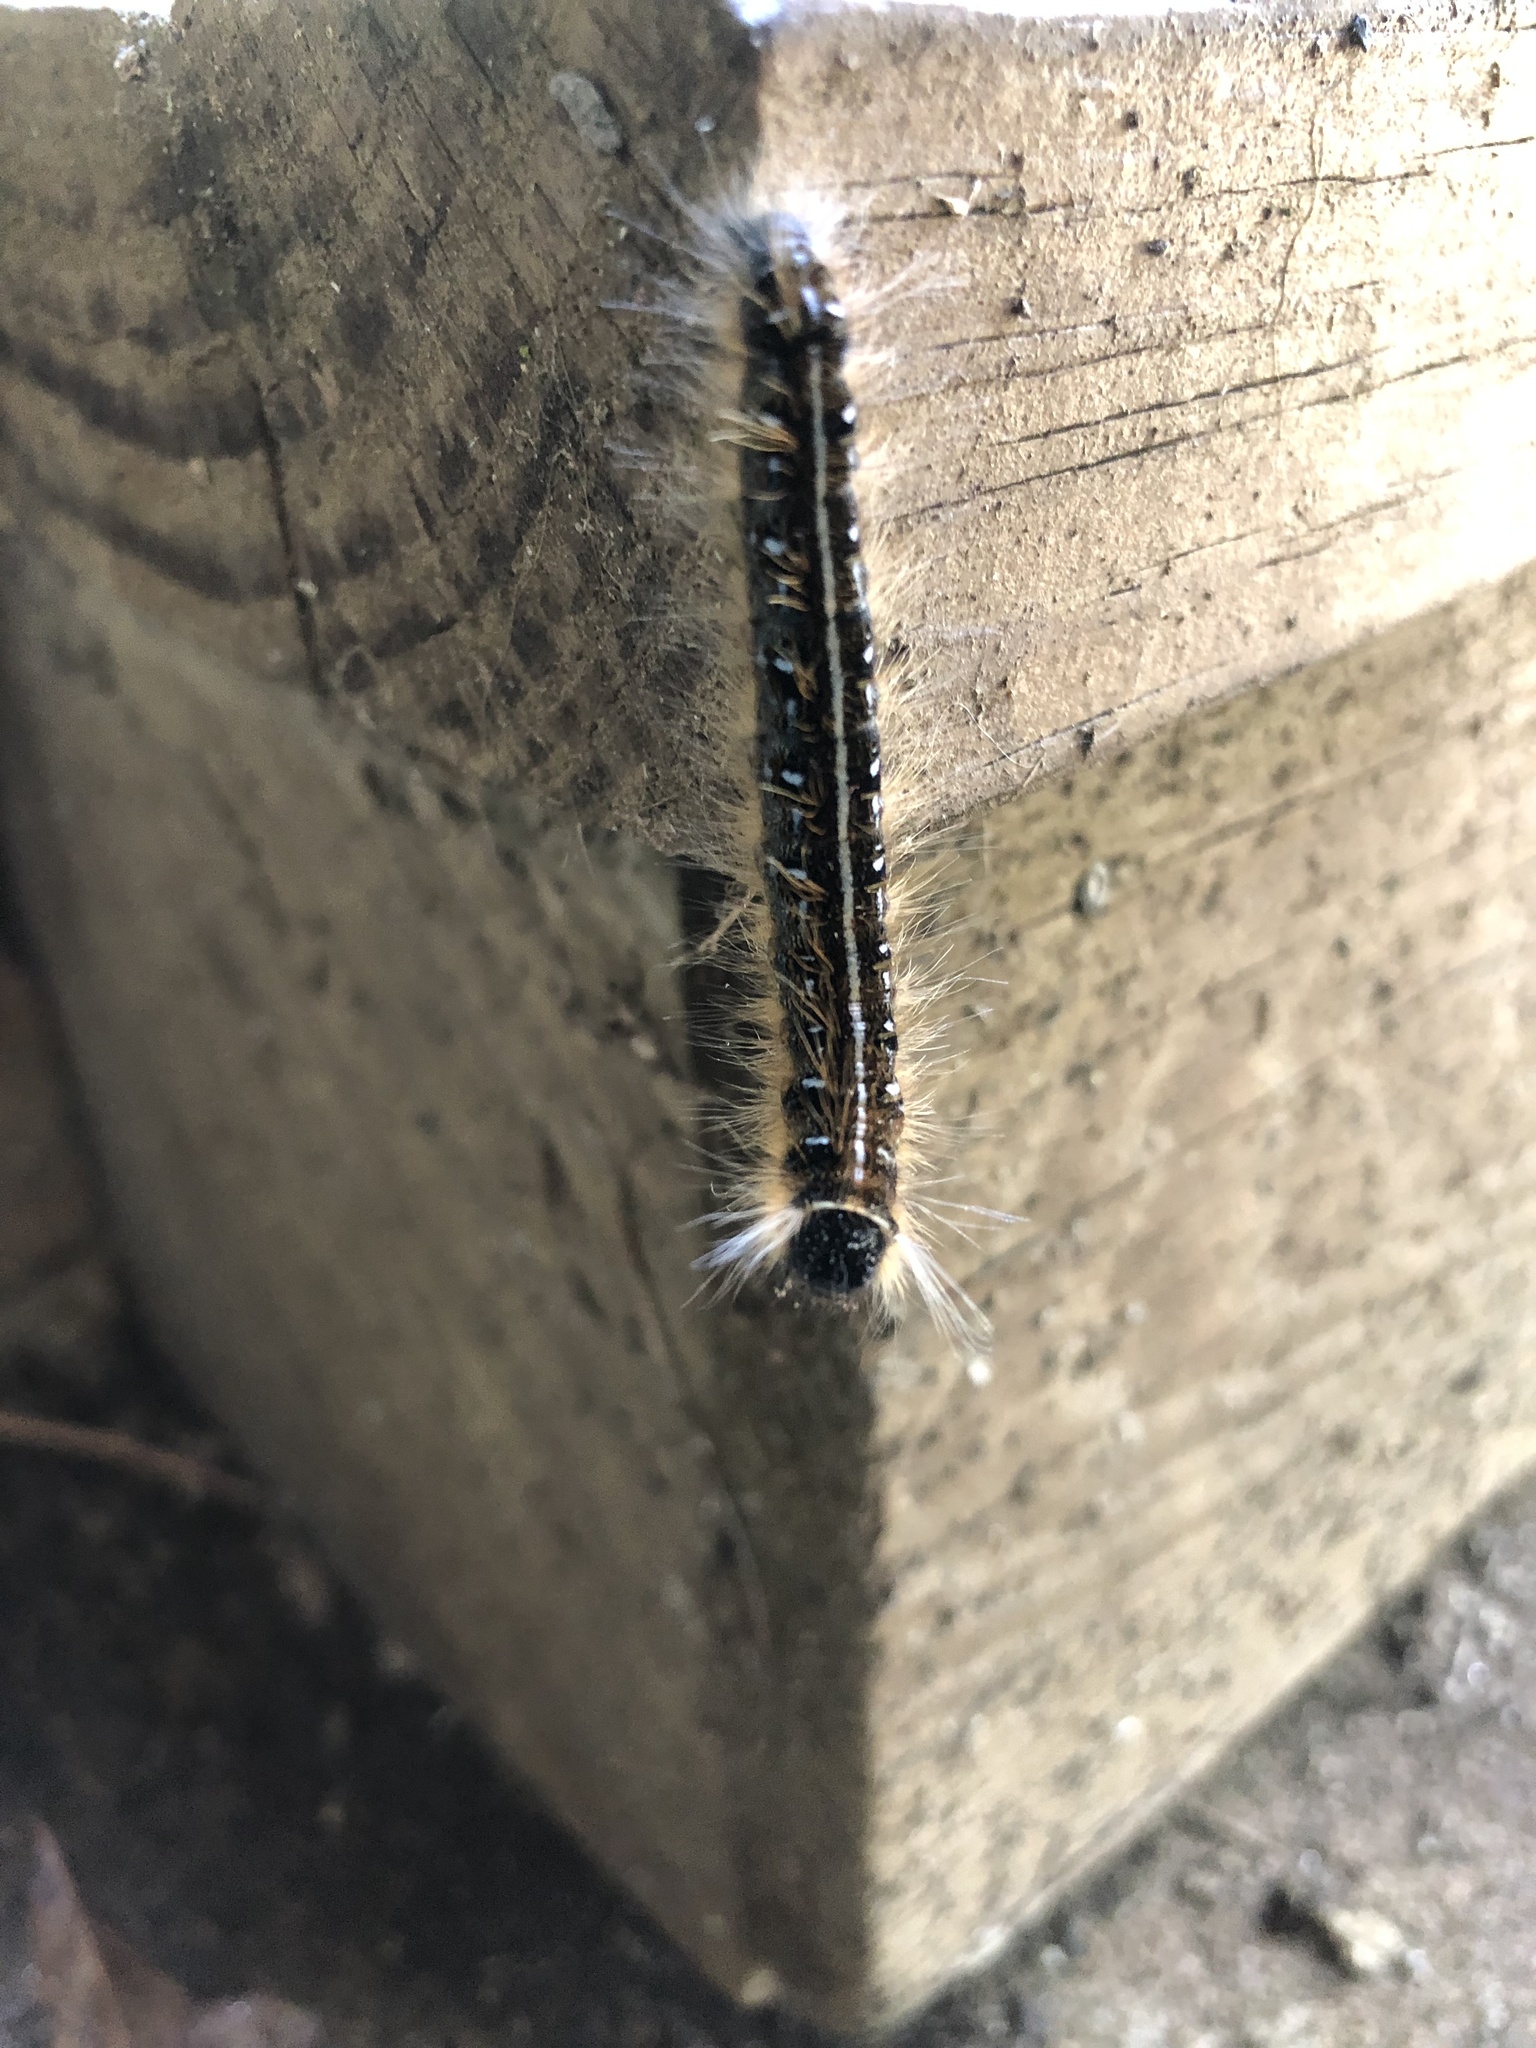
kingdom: Animalia
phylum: Arthropoda
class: Insecta
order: Lepidoptera
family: Lasiocampidae
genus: Malacosoma
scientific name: Malacosoma americana
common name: Eastern tent caterpillar moth
